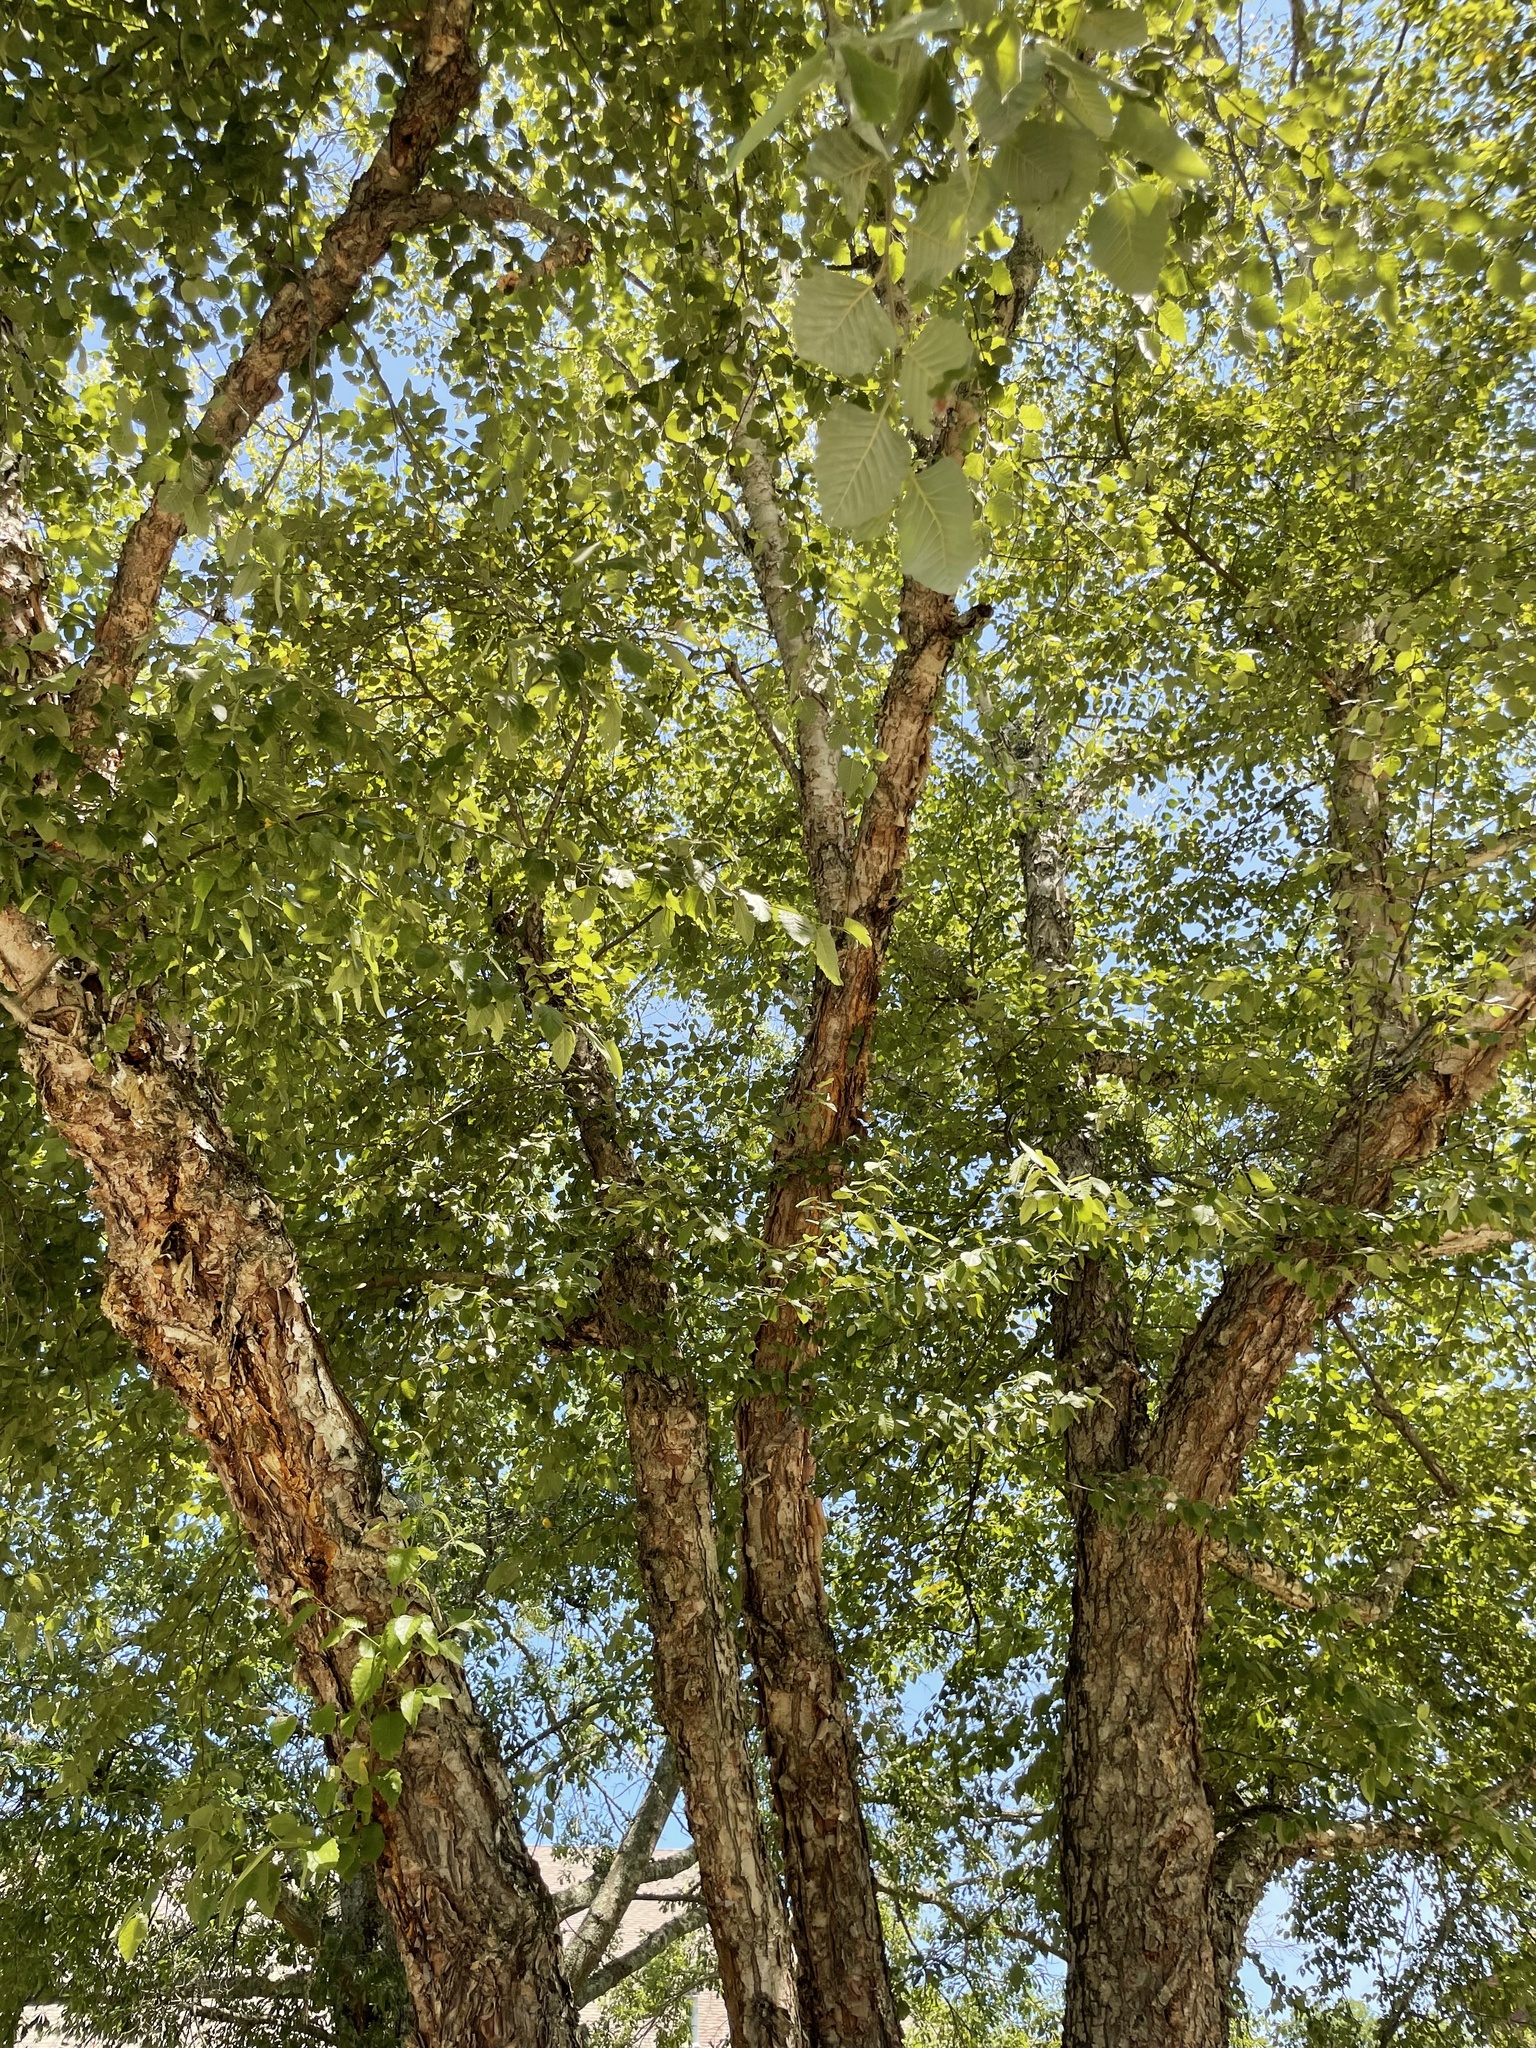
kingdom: Plantae
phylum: Tracheophyta
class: Magnoliopsida
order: Fagales
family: Betulaceae
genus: Betula
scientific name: Betula nigra
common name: Black birch
